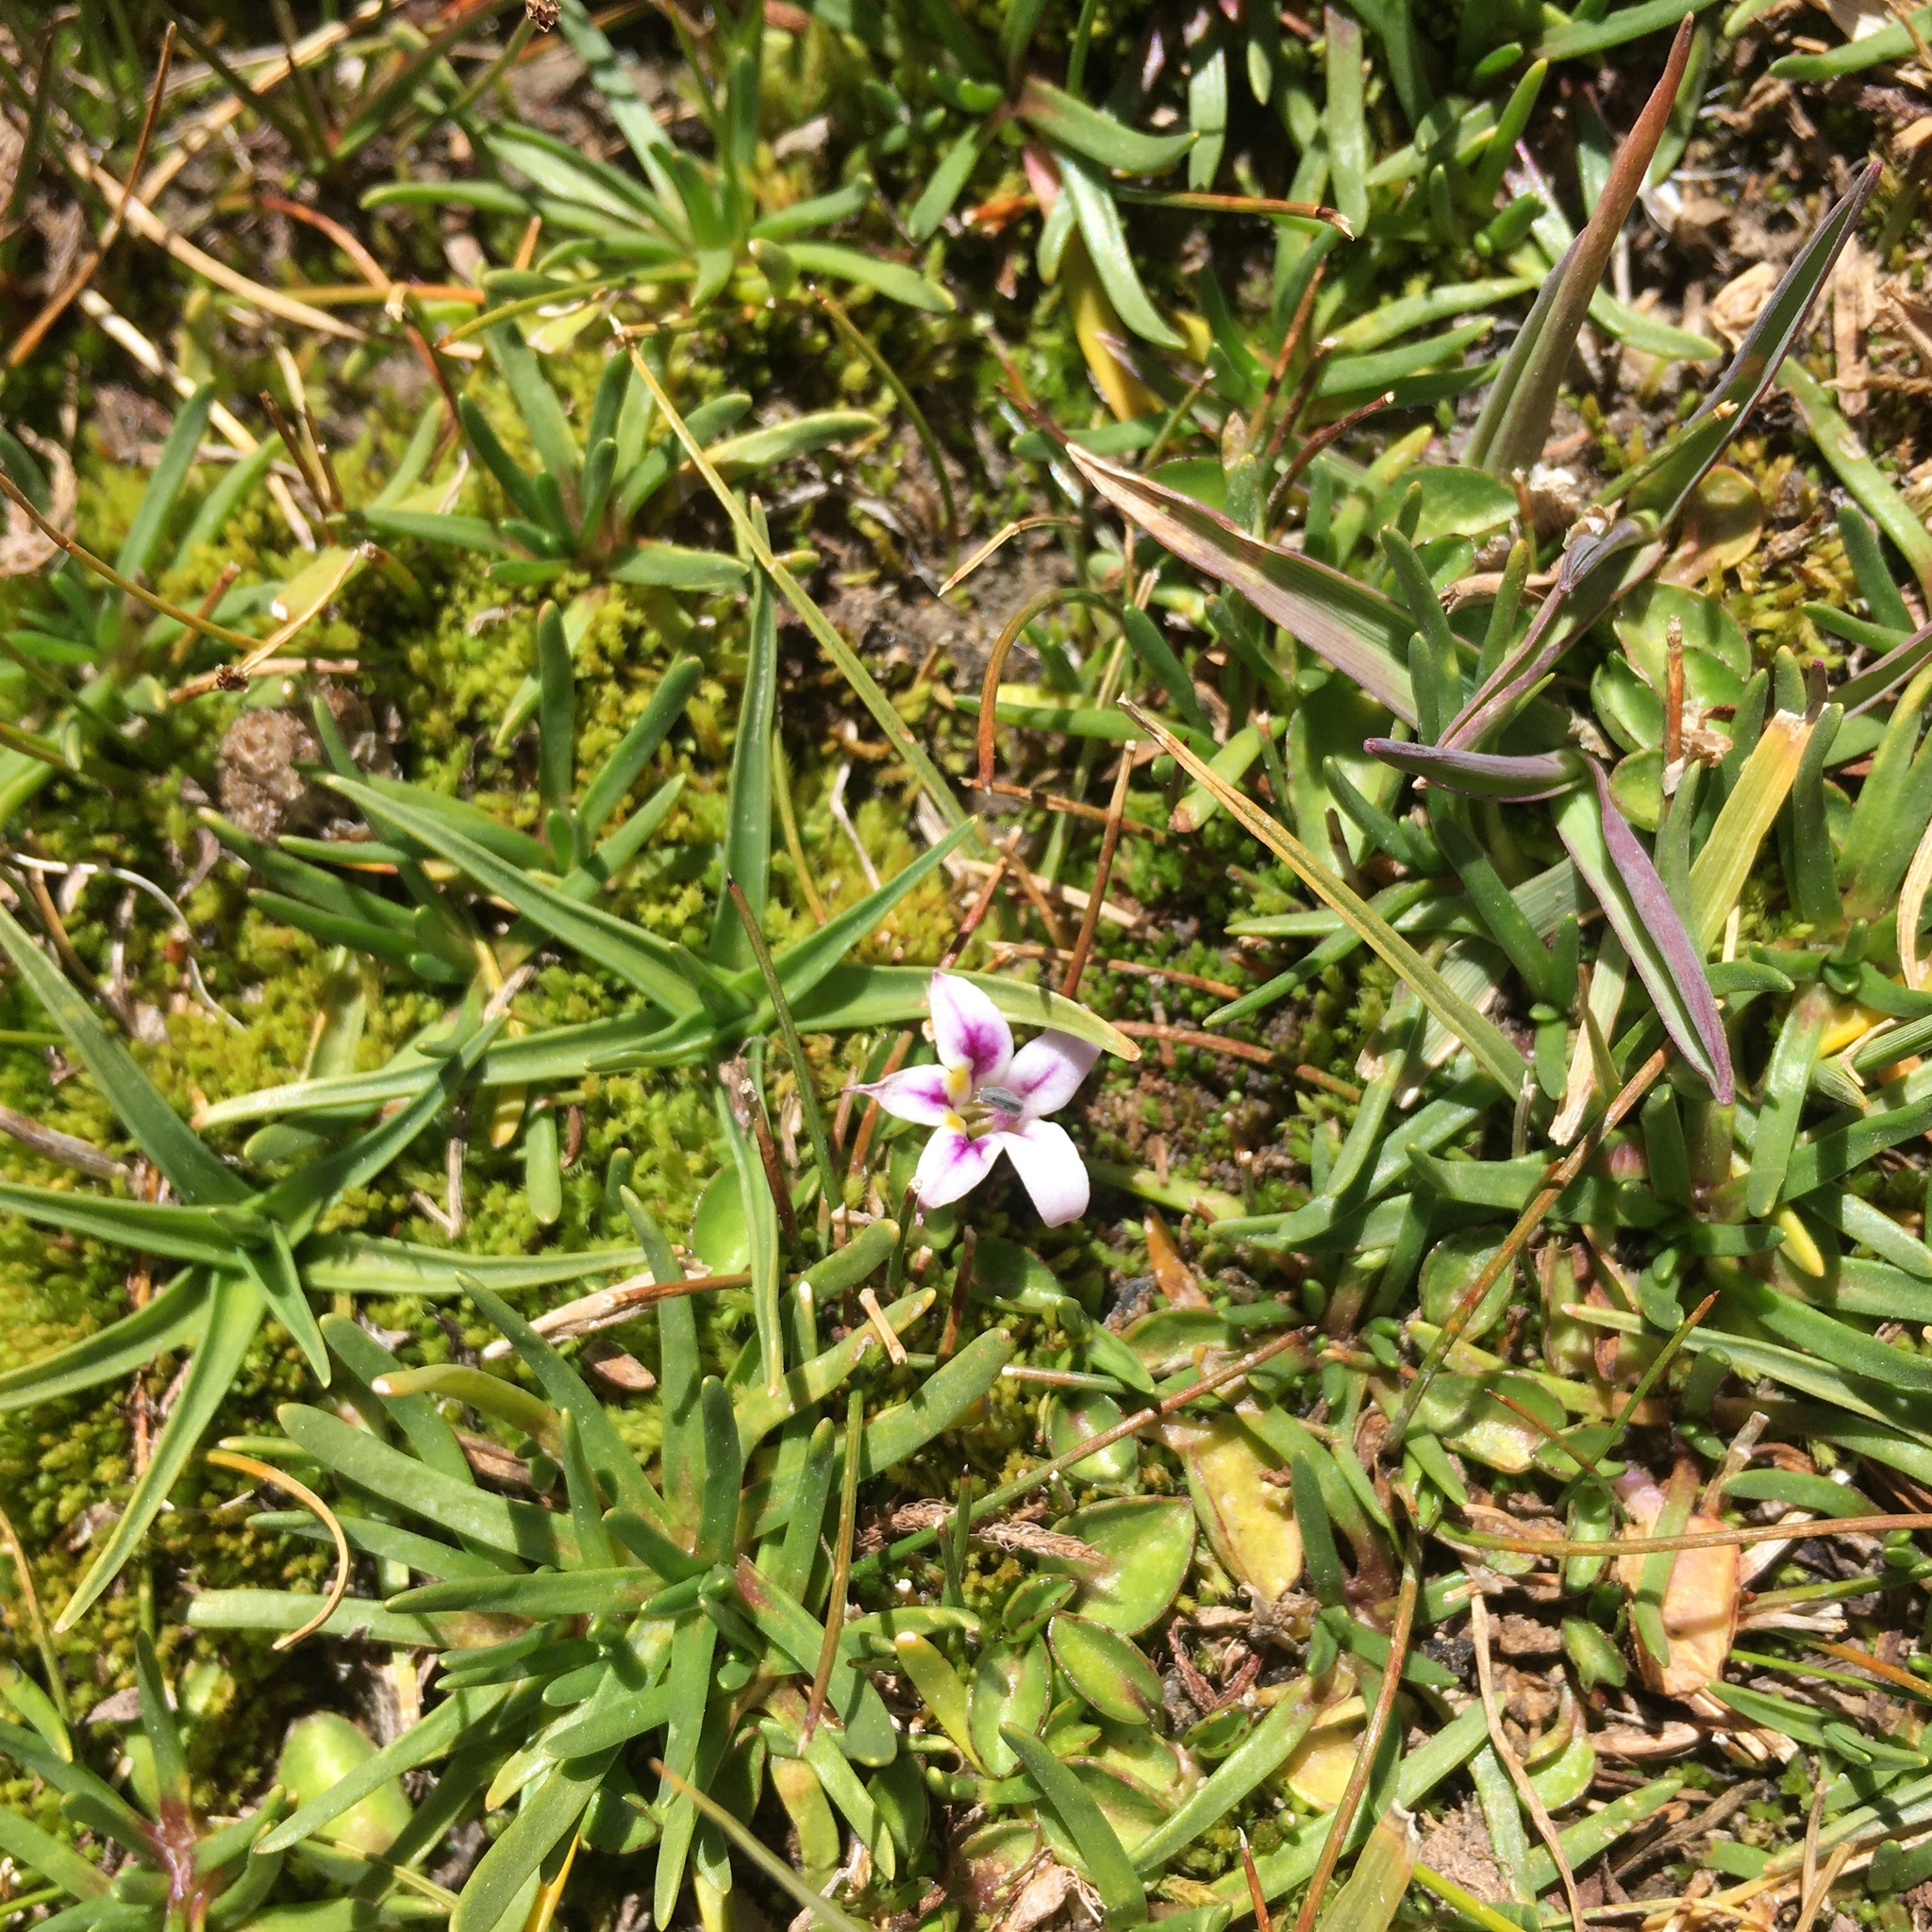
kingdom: Plantae
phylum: Tracheophyta
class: Magnoliopsida
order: Asterales
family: Campanulaceae
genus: Lobelia
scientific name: Lobelia oligophylla
